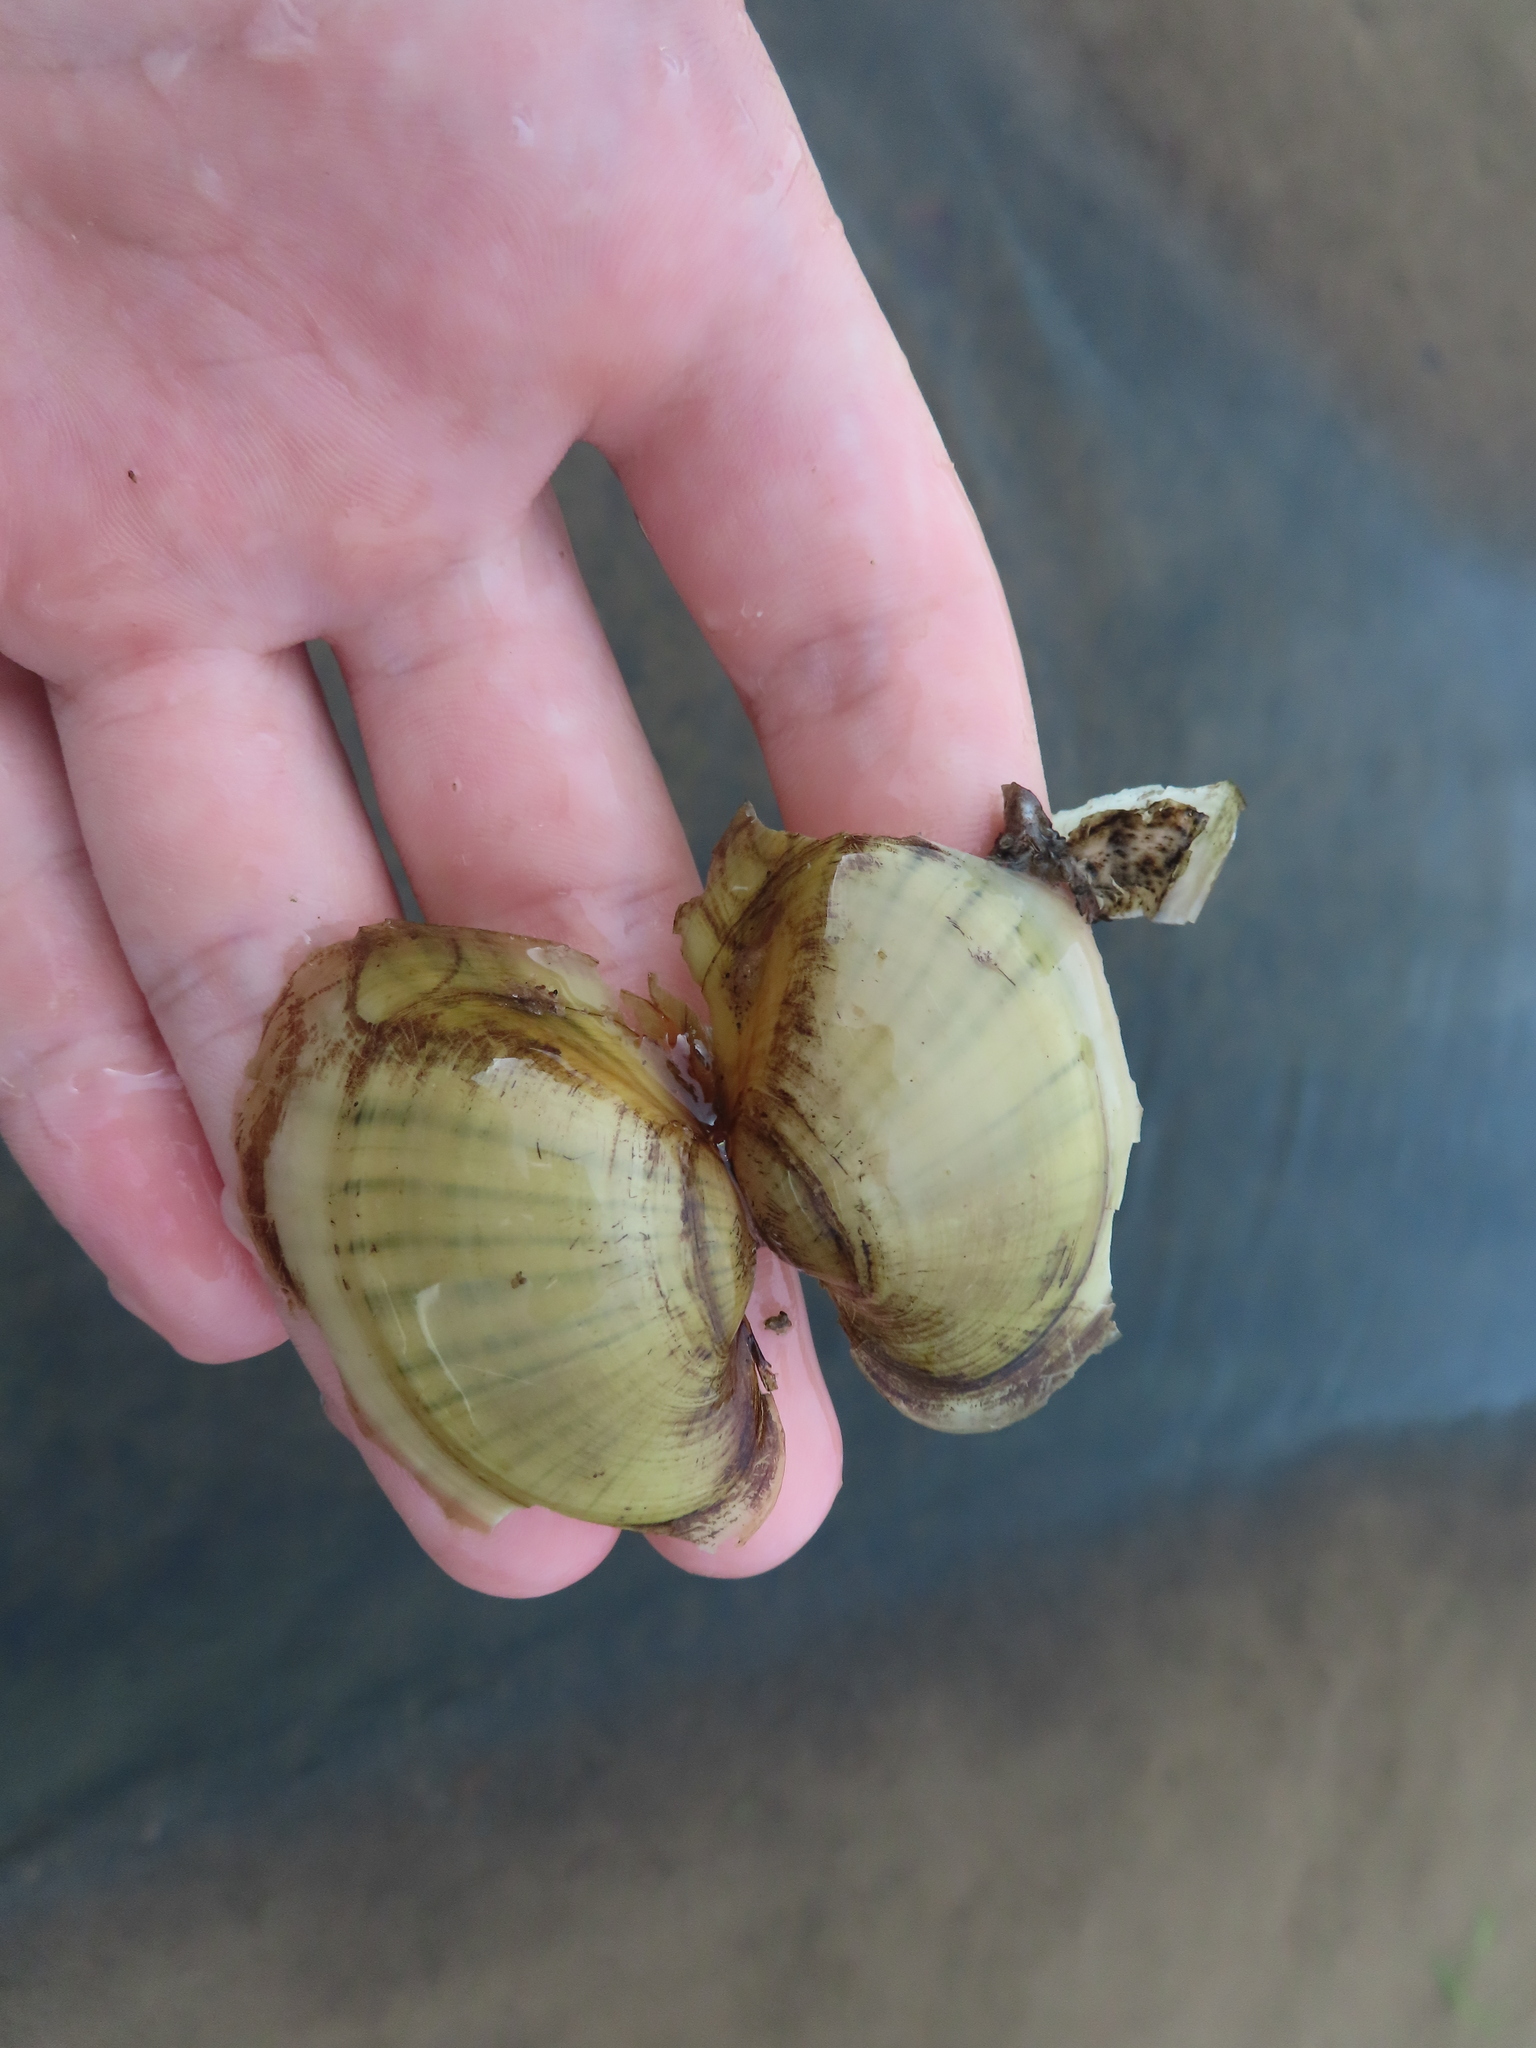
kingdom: Animalia
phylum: Mollusca
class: Bivalvia
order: Unionida
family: Unionidae
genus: Lampsilis
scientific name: Lampsilis cardium
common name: Plain pocketbook
